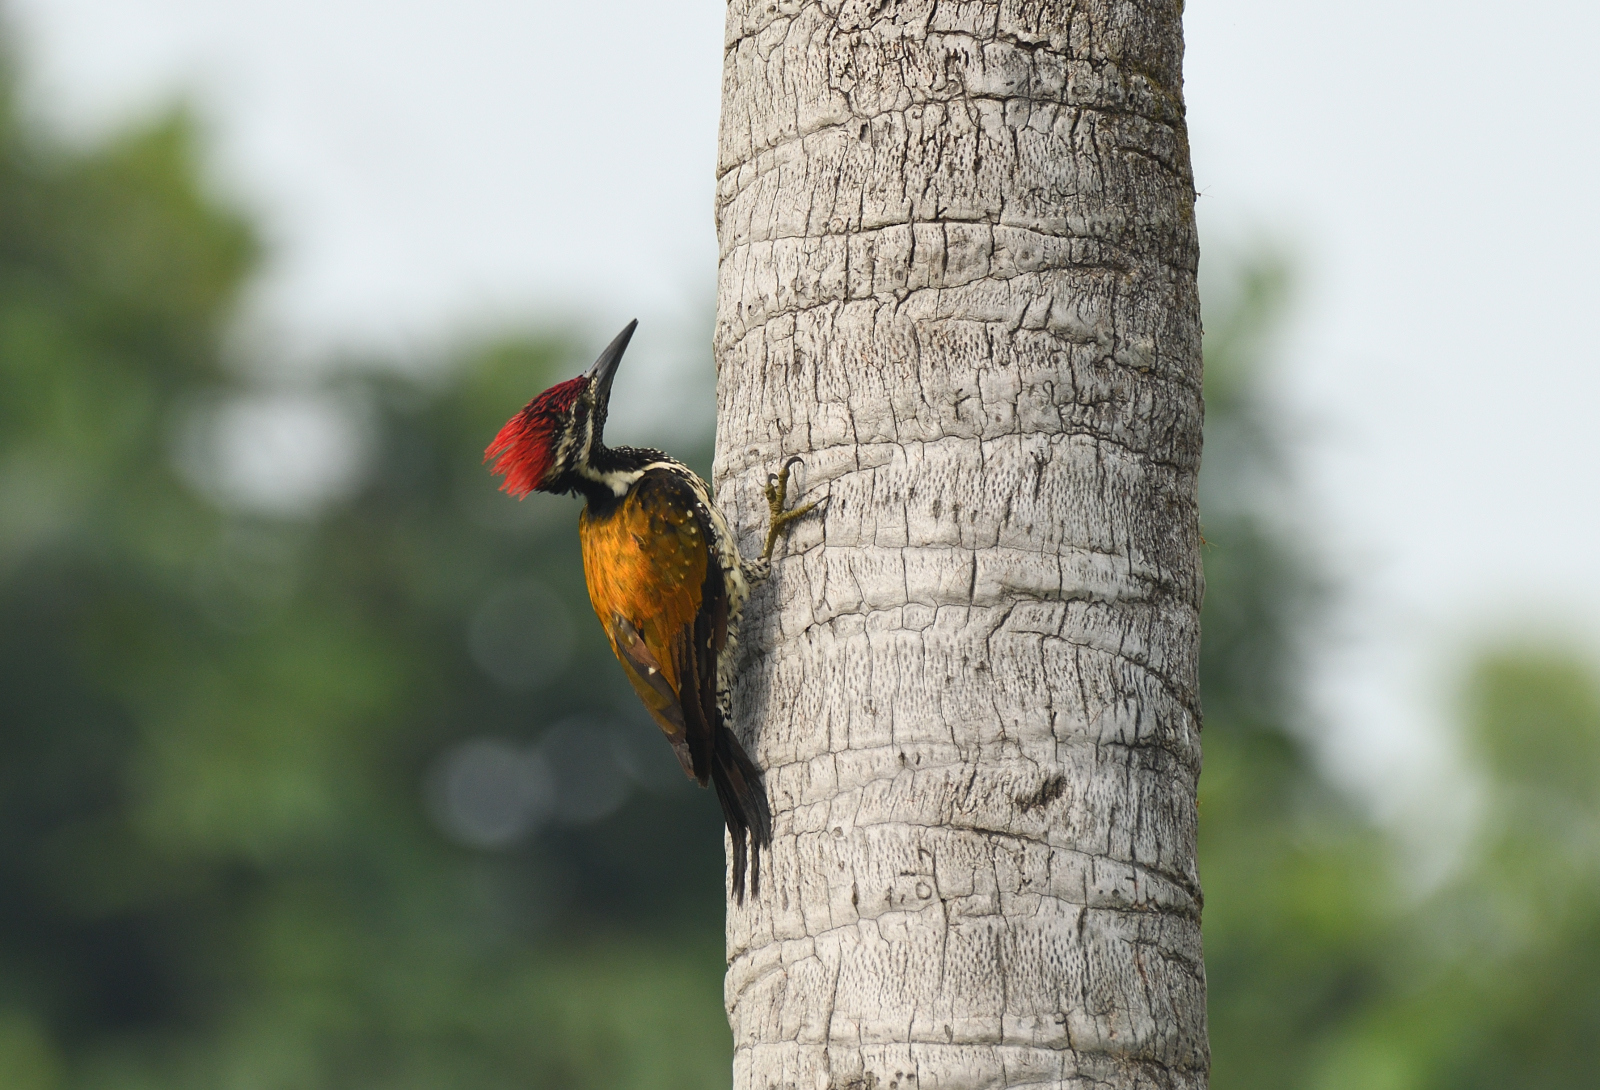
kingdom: Animalia
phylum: Chordata
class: Aves
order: Piciformes
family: Picidae
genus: Dinopium
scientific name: Dinopium benghalense
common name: Black-rumped flameback
